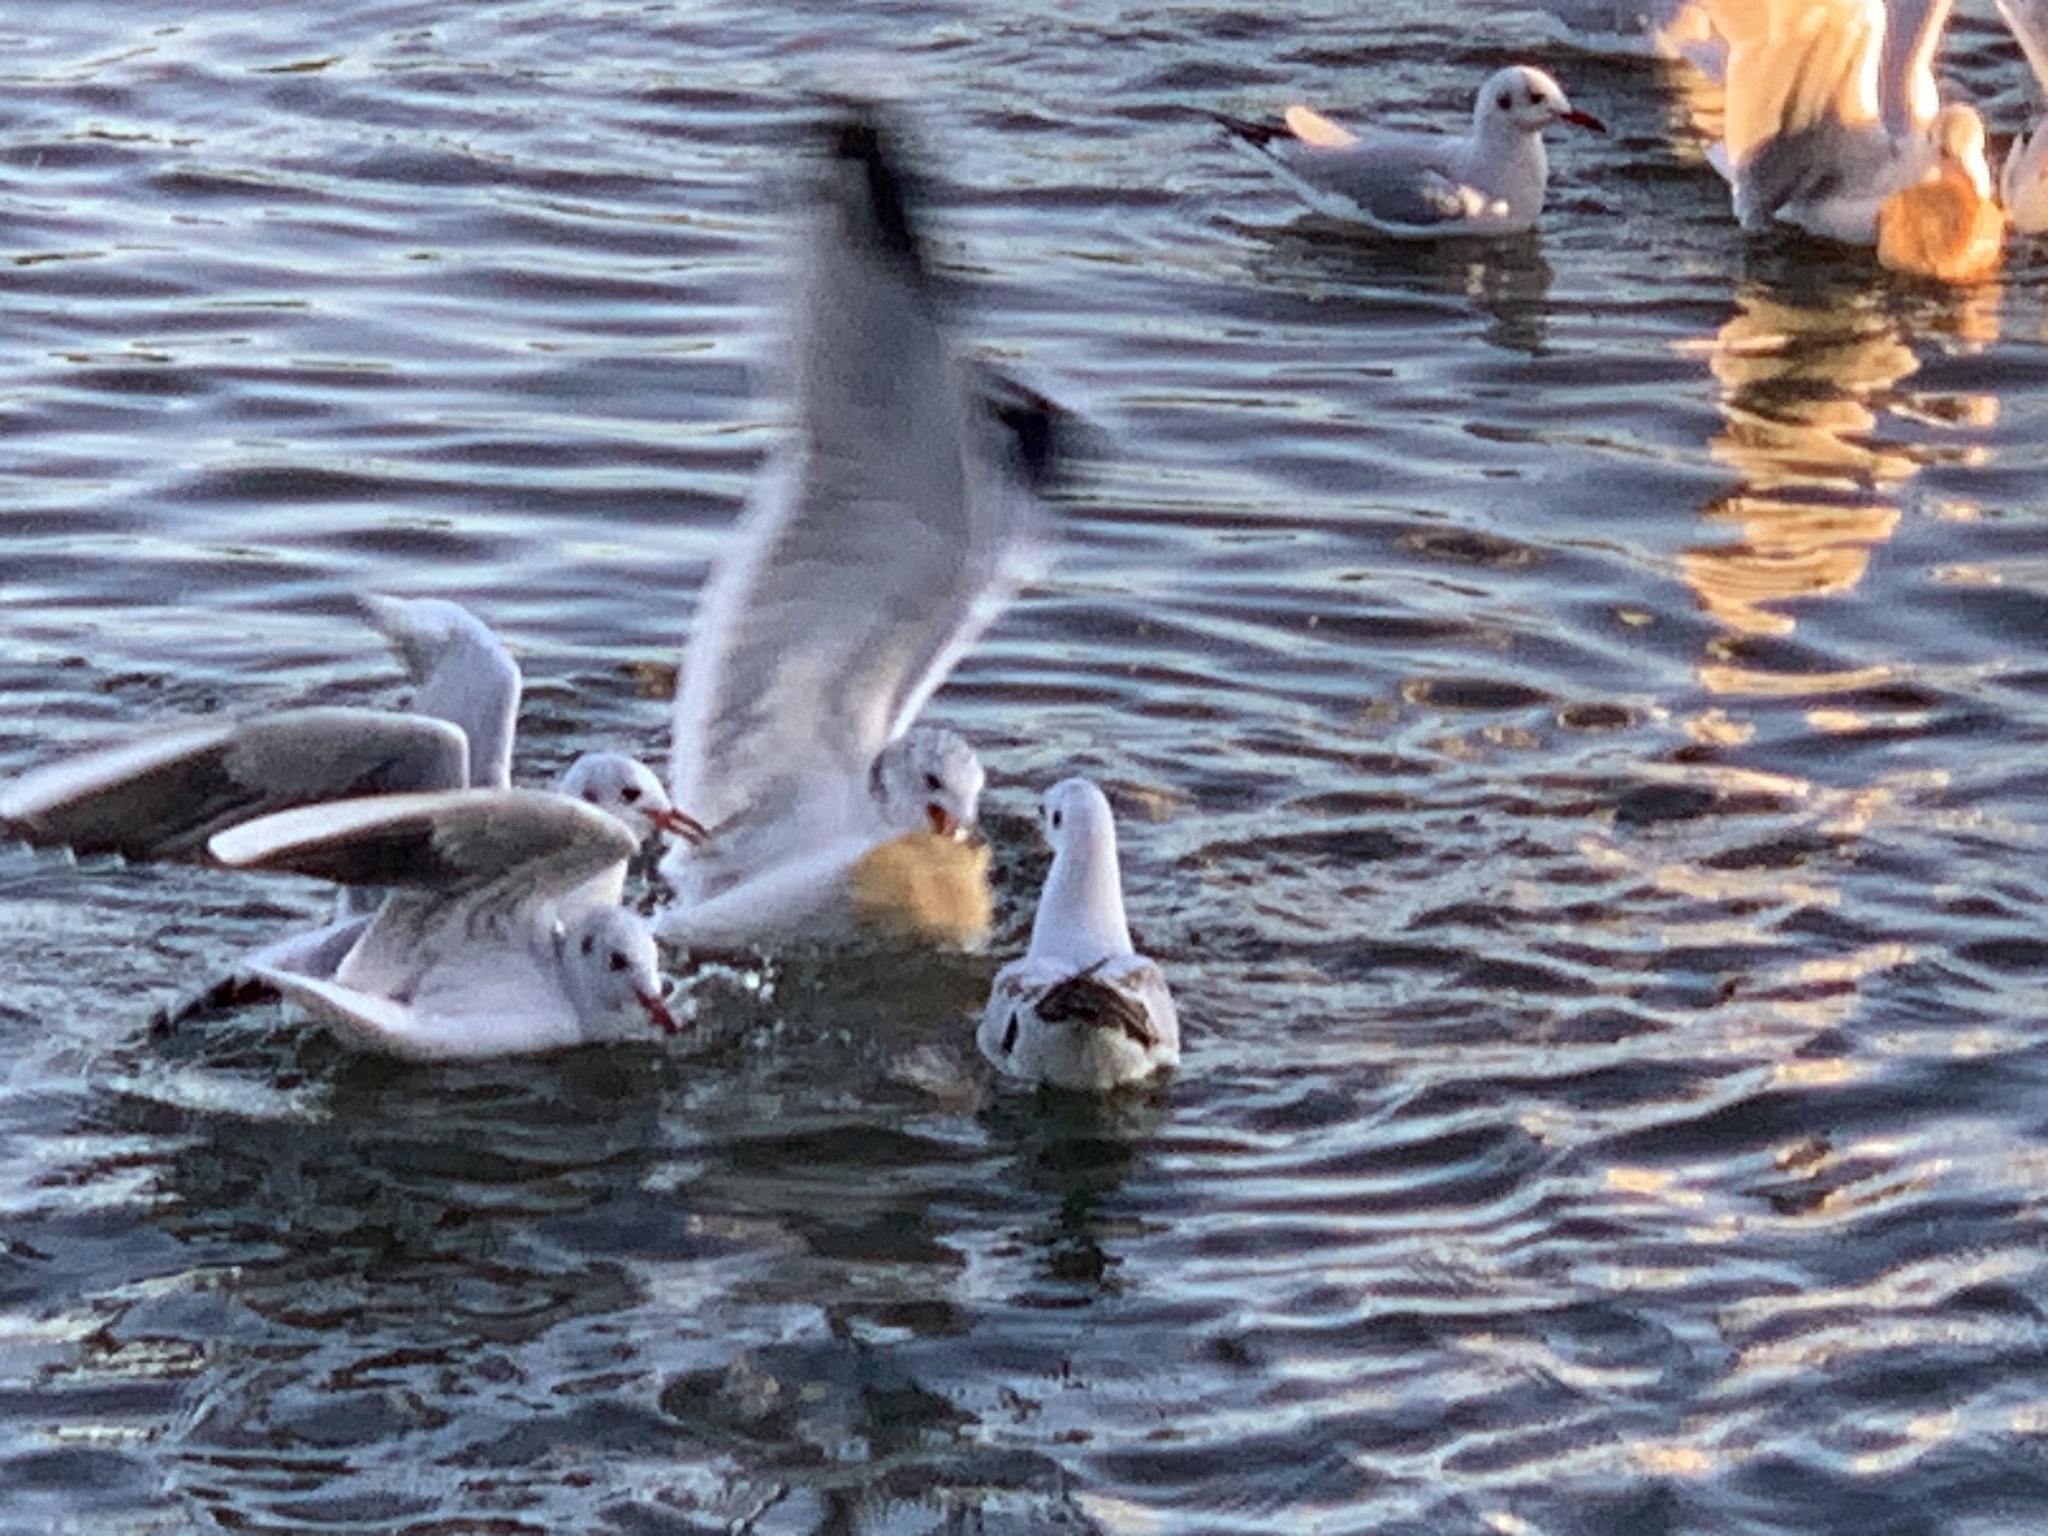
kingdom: Animalia
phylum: Chordata
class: Aves
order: Charadriiformes
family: Laridae
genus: Chroicocephalus
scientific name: Chroicocephalus ridibundus
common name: Black-headed gull
